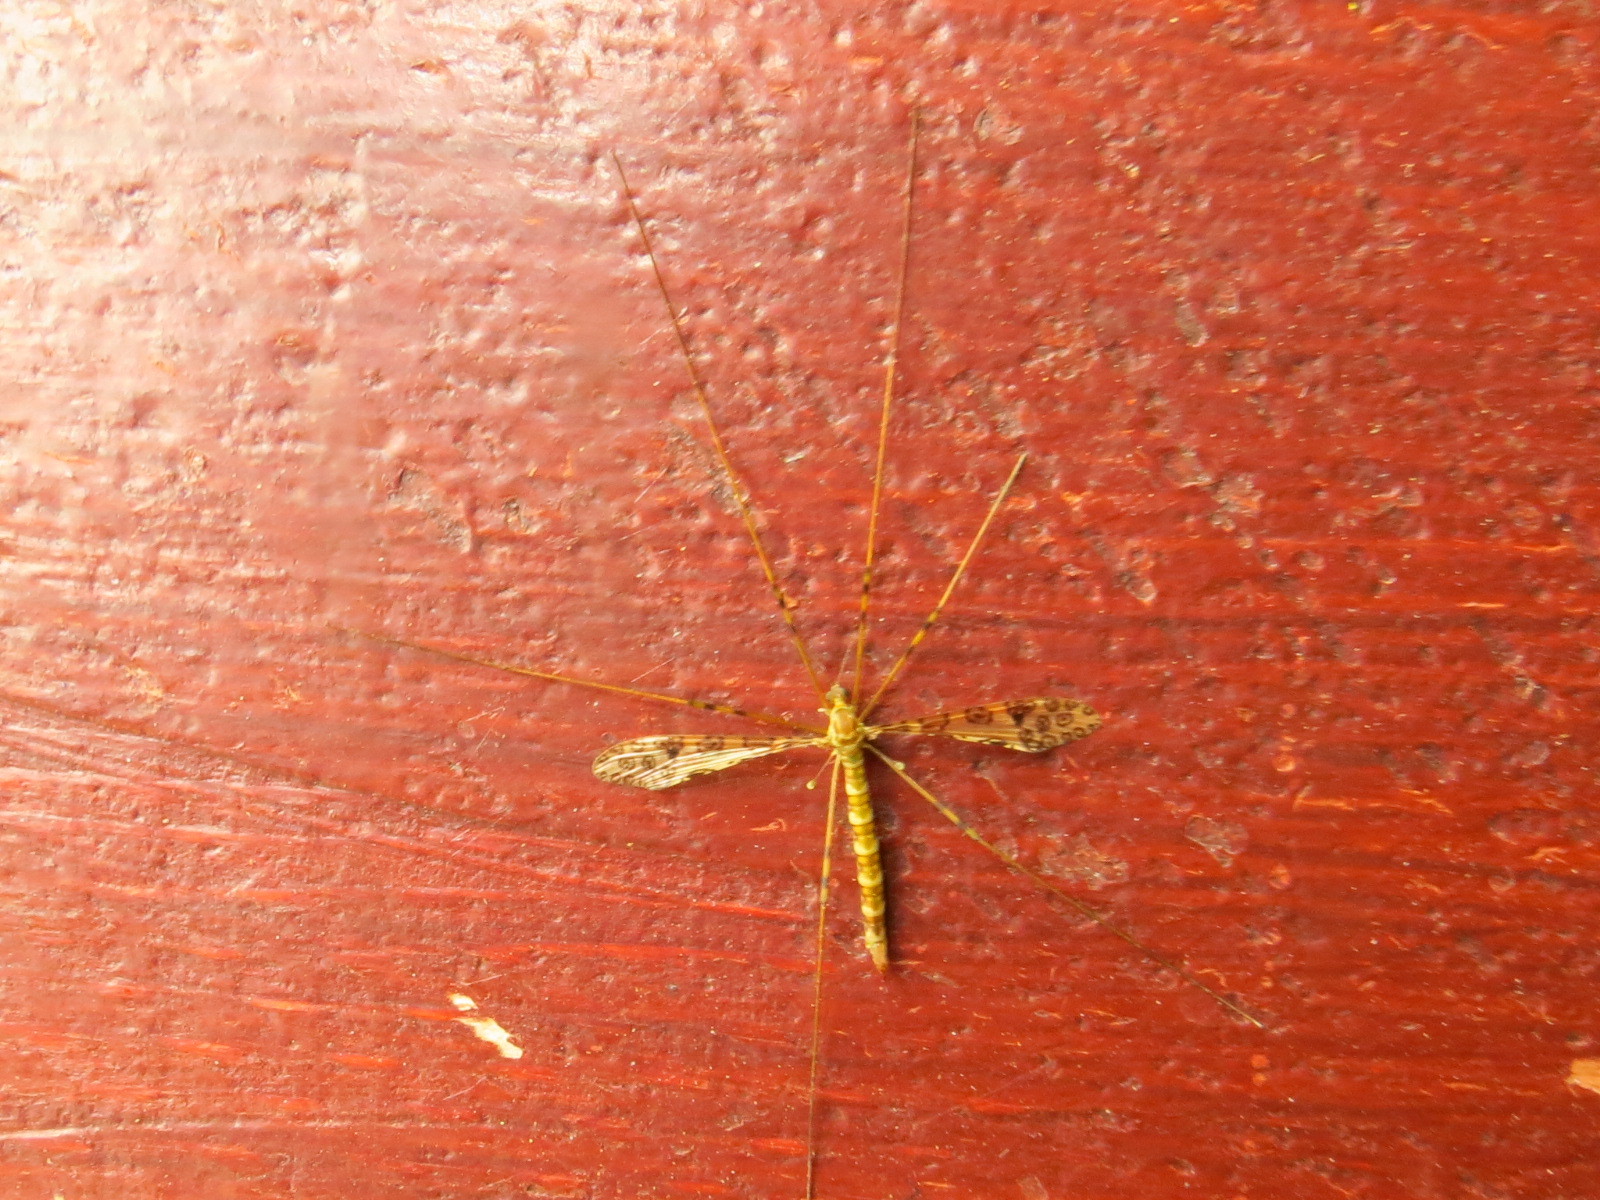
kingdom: Animalia
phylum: Arthropoda
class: Insecta
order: Diptera
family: Limoniidae
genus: Austrolimnophila
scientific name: Austrolimnophila argus
